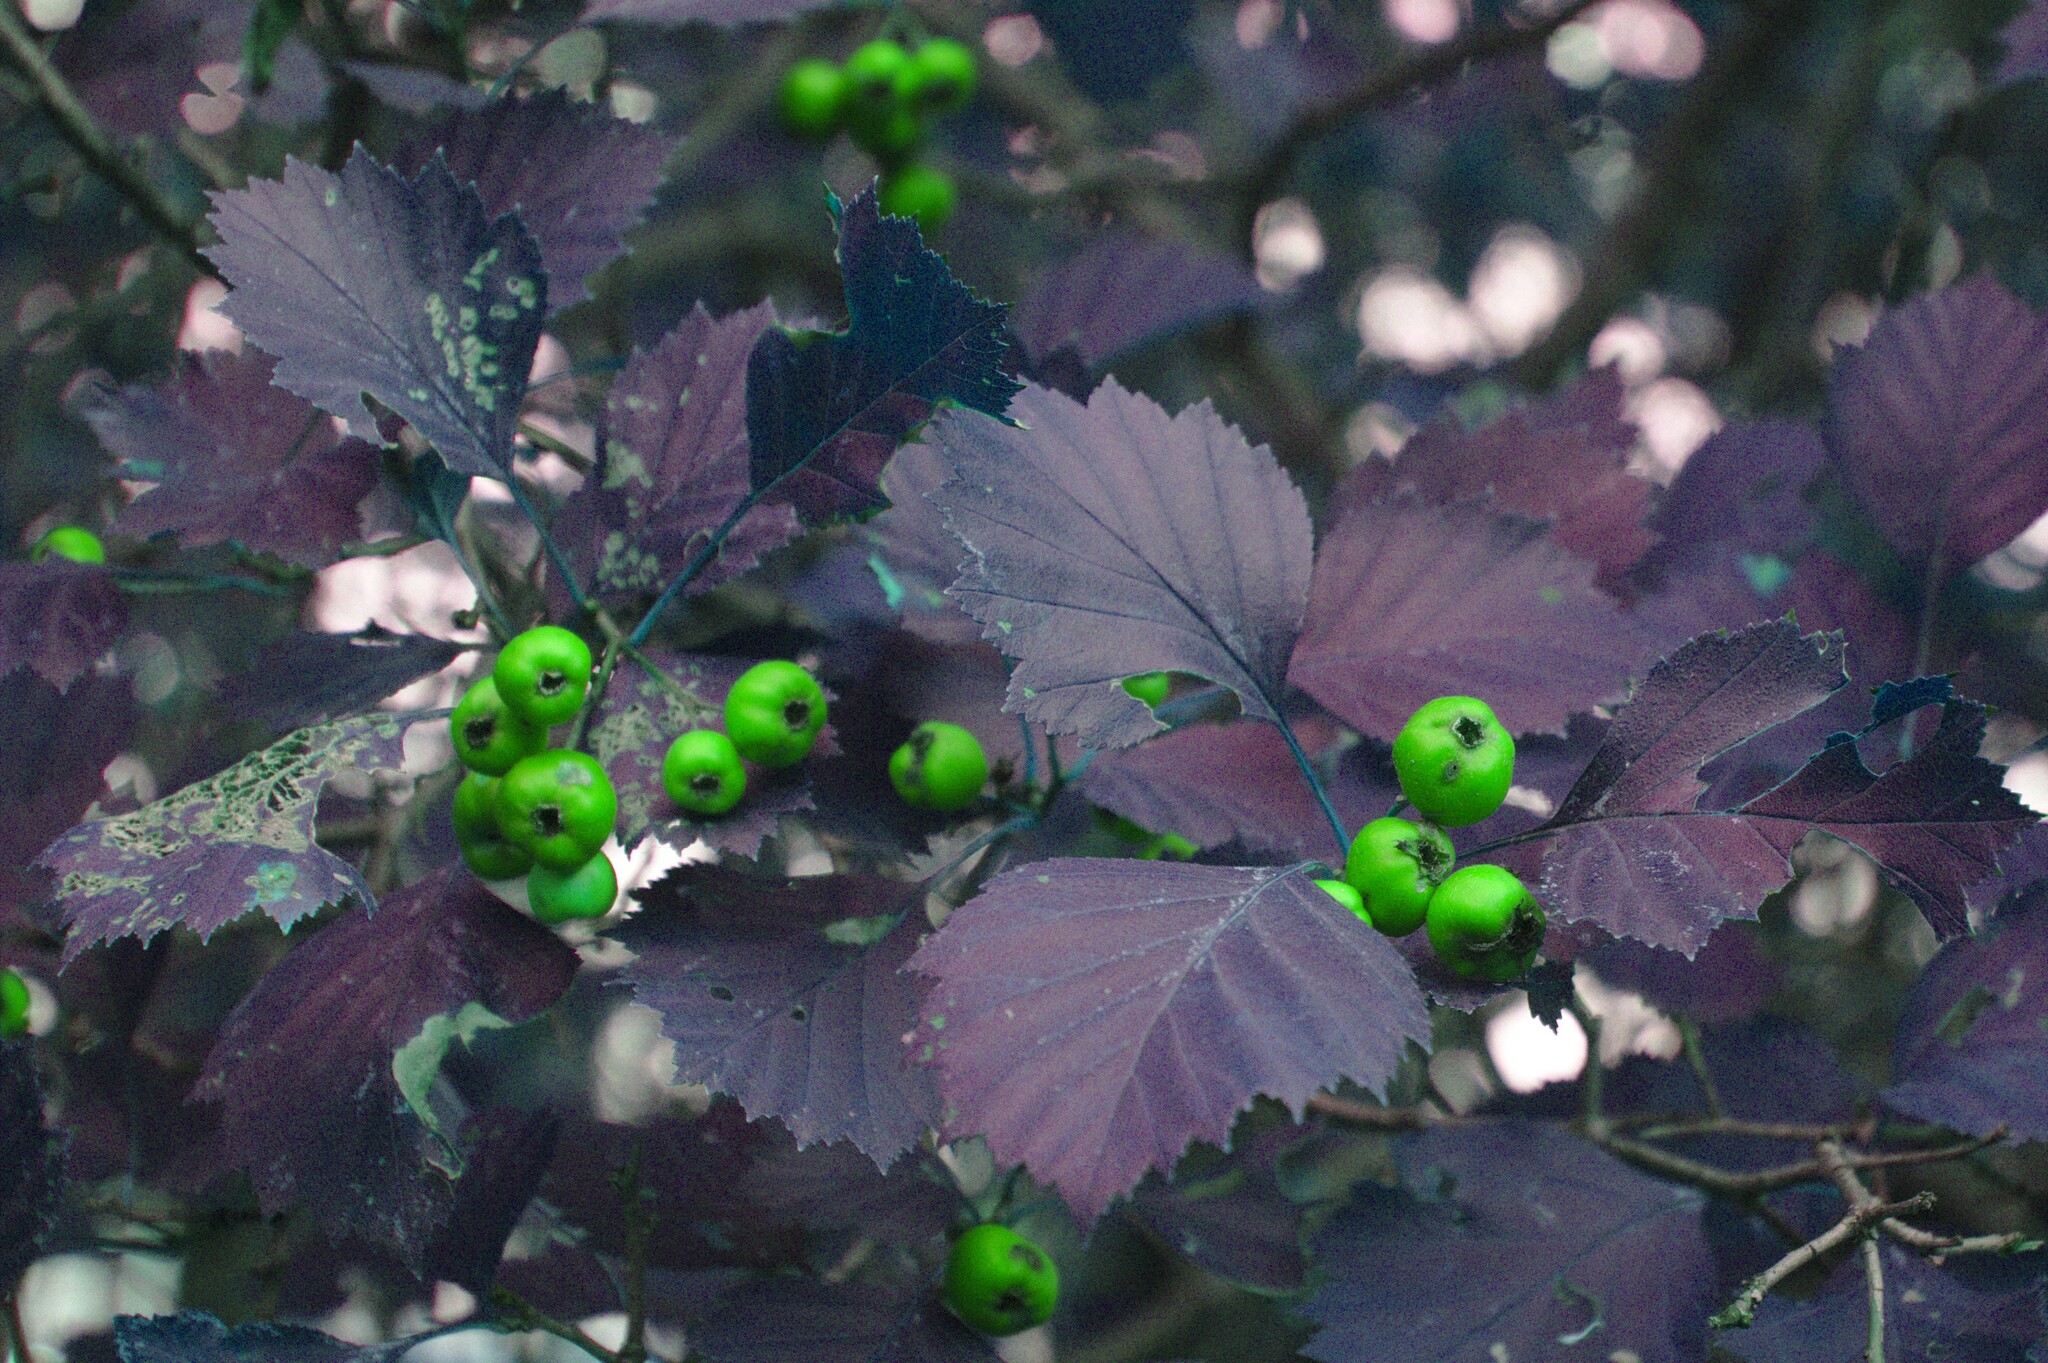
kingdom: Plantae
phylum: Tracheophyta
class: Magnoliopsida
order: Rosales
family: Rosaceae
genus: Crataegus
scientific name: Crataegus chrysocarpa
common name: Fire-berry hawthorn
